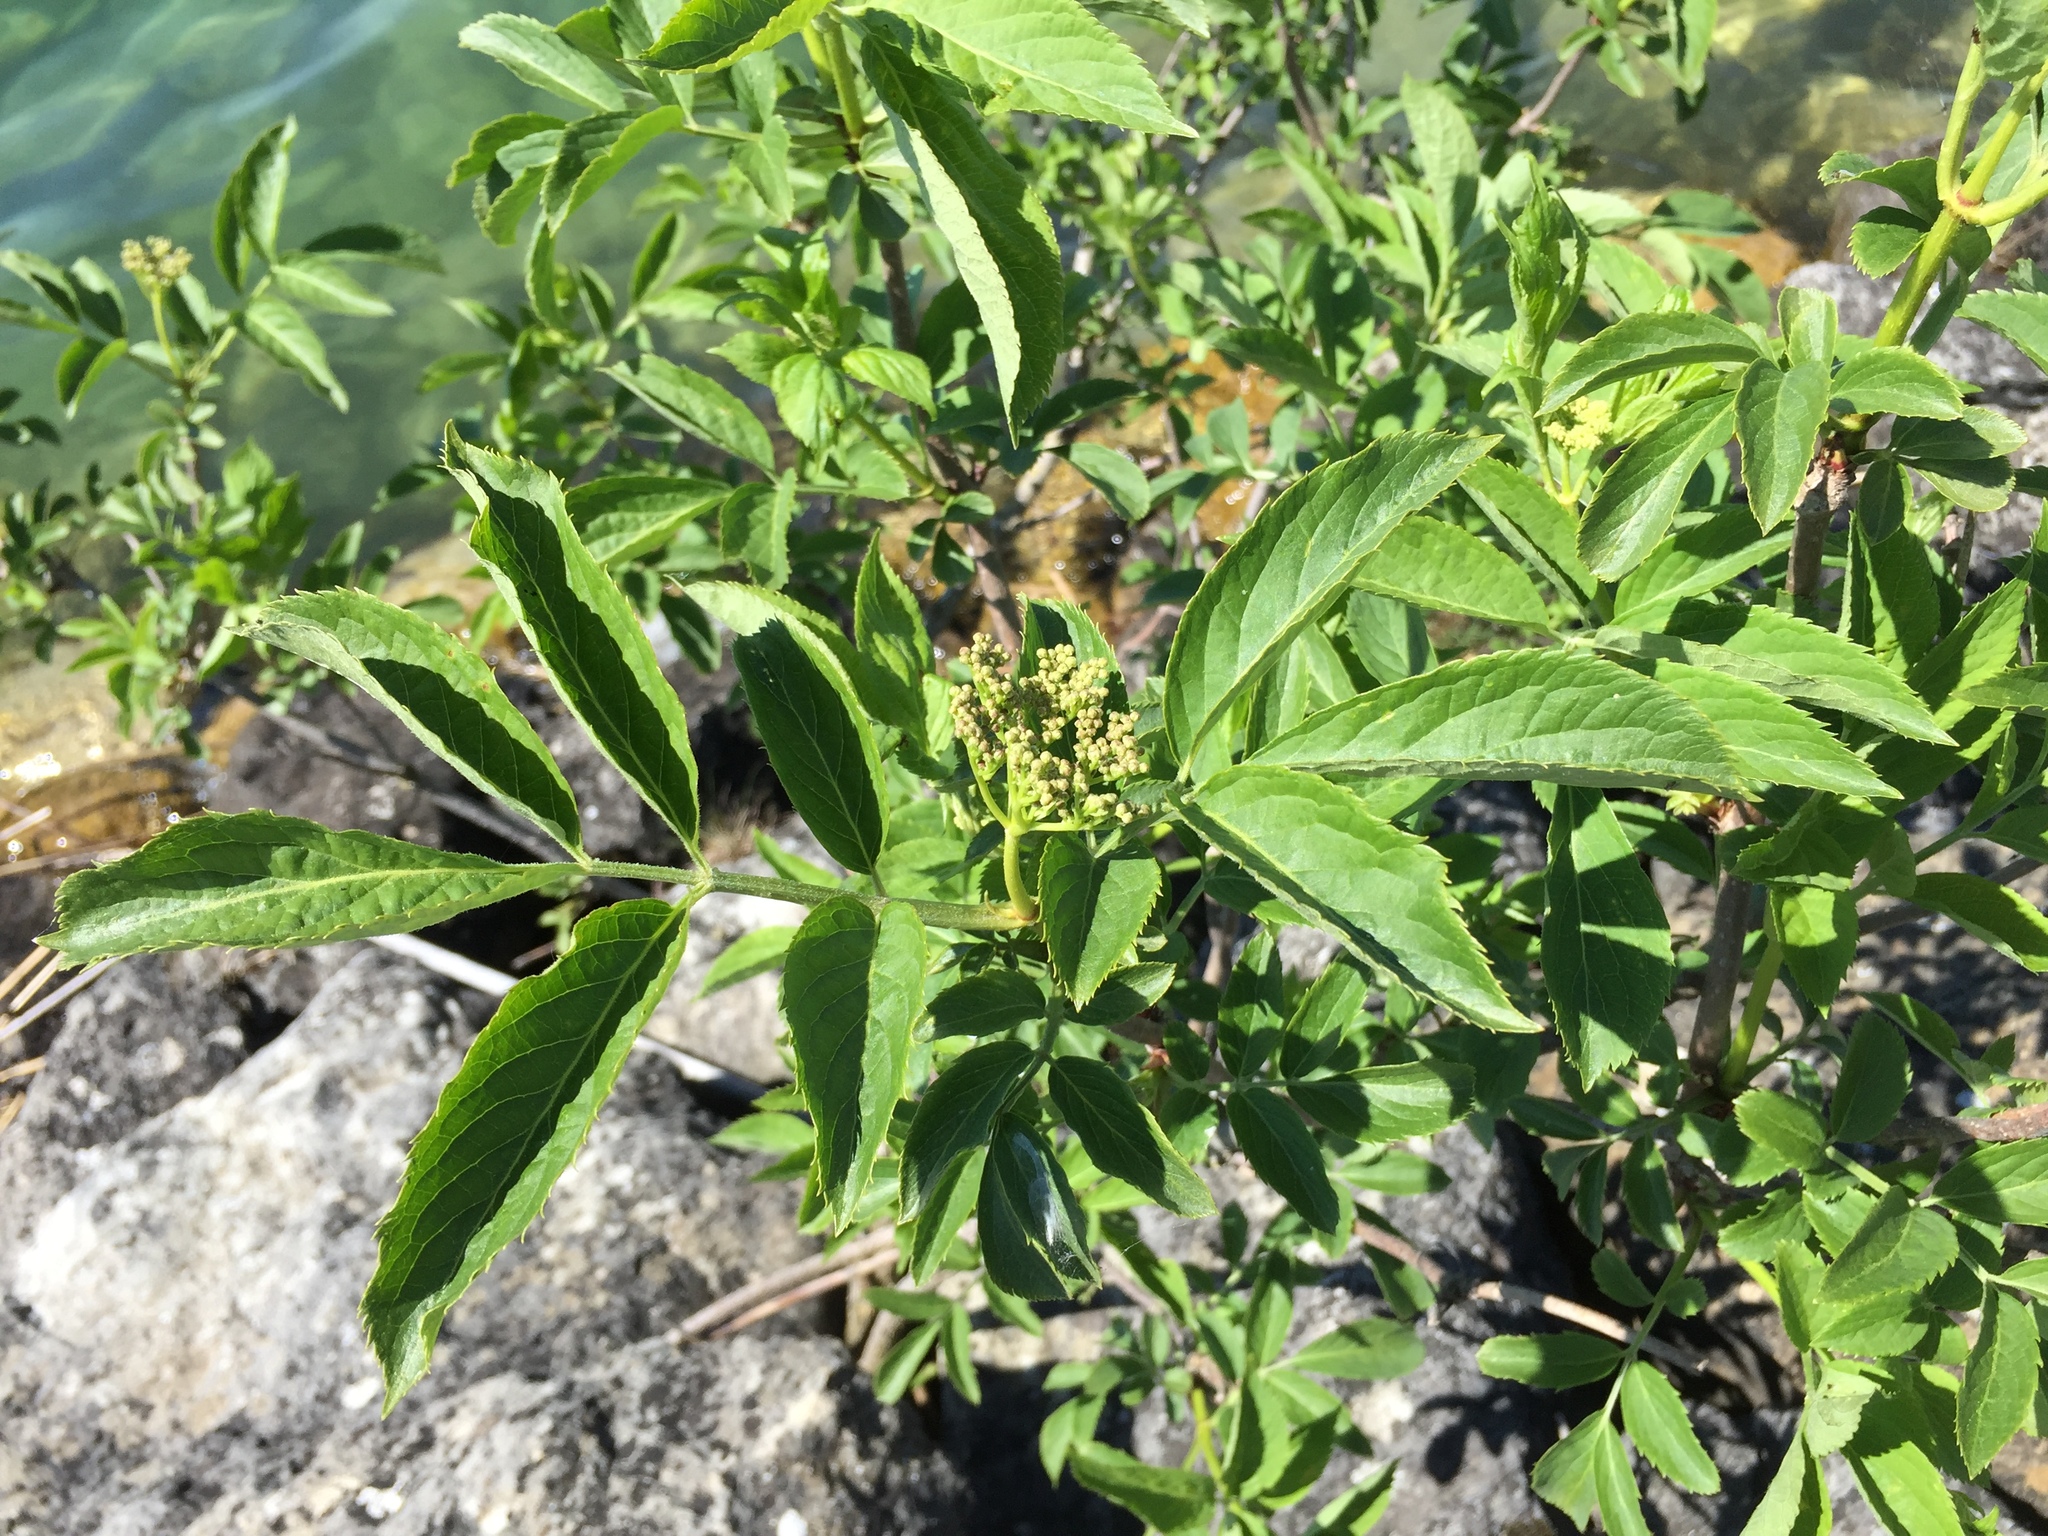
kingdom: Plantae
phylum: Tracheophyta
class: Magnoliopsida
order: Dipsacales
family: Viburnaceae
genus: Sambucus
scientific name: Sambucus nigra
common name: Elder
